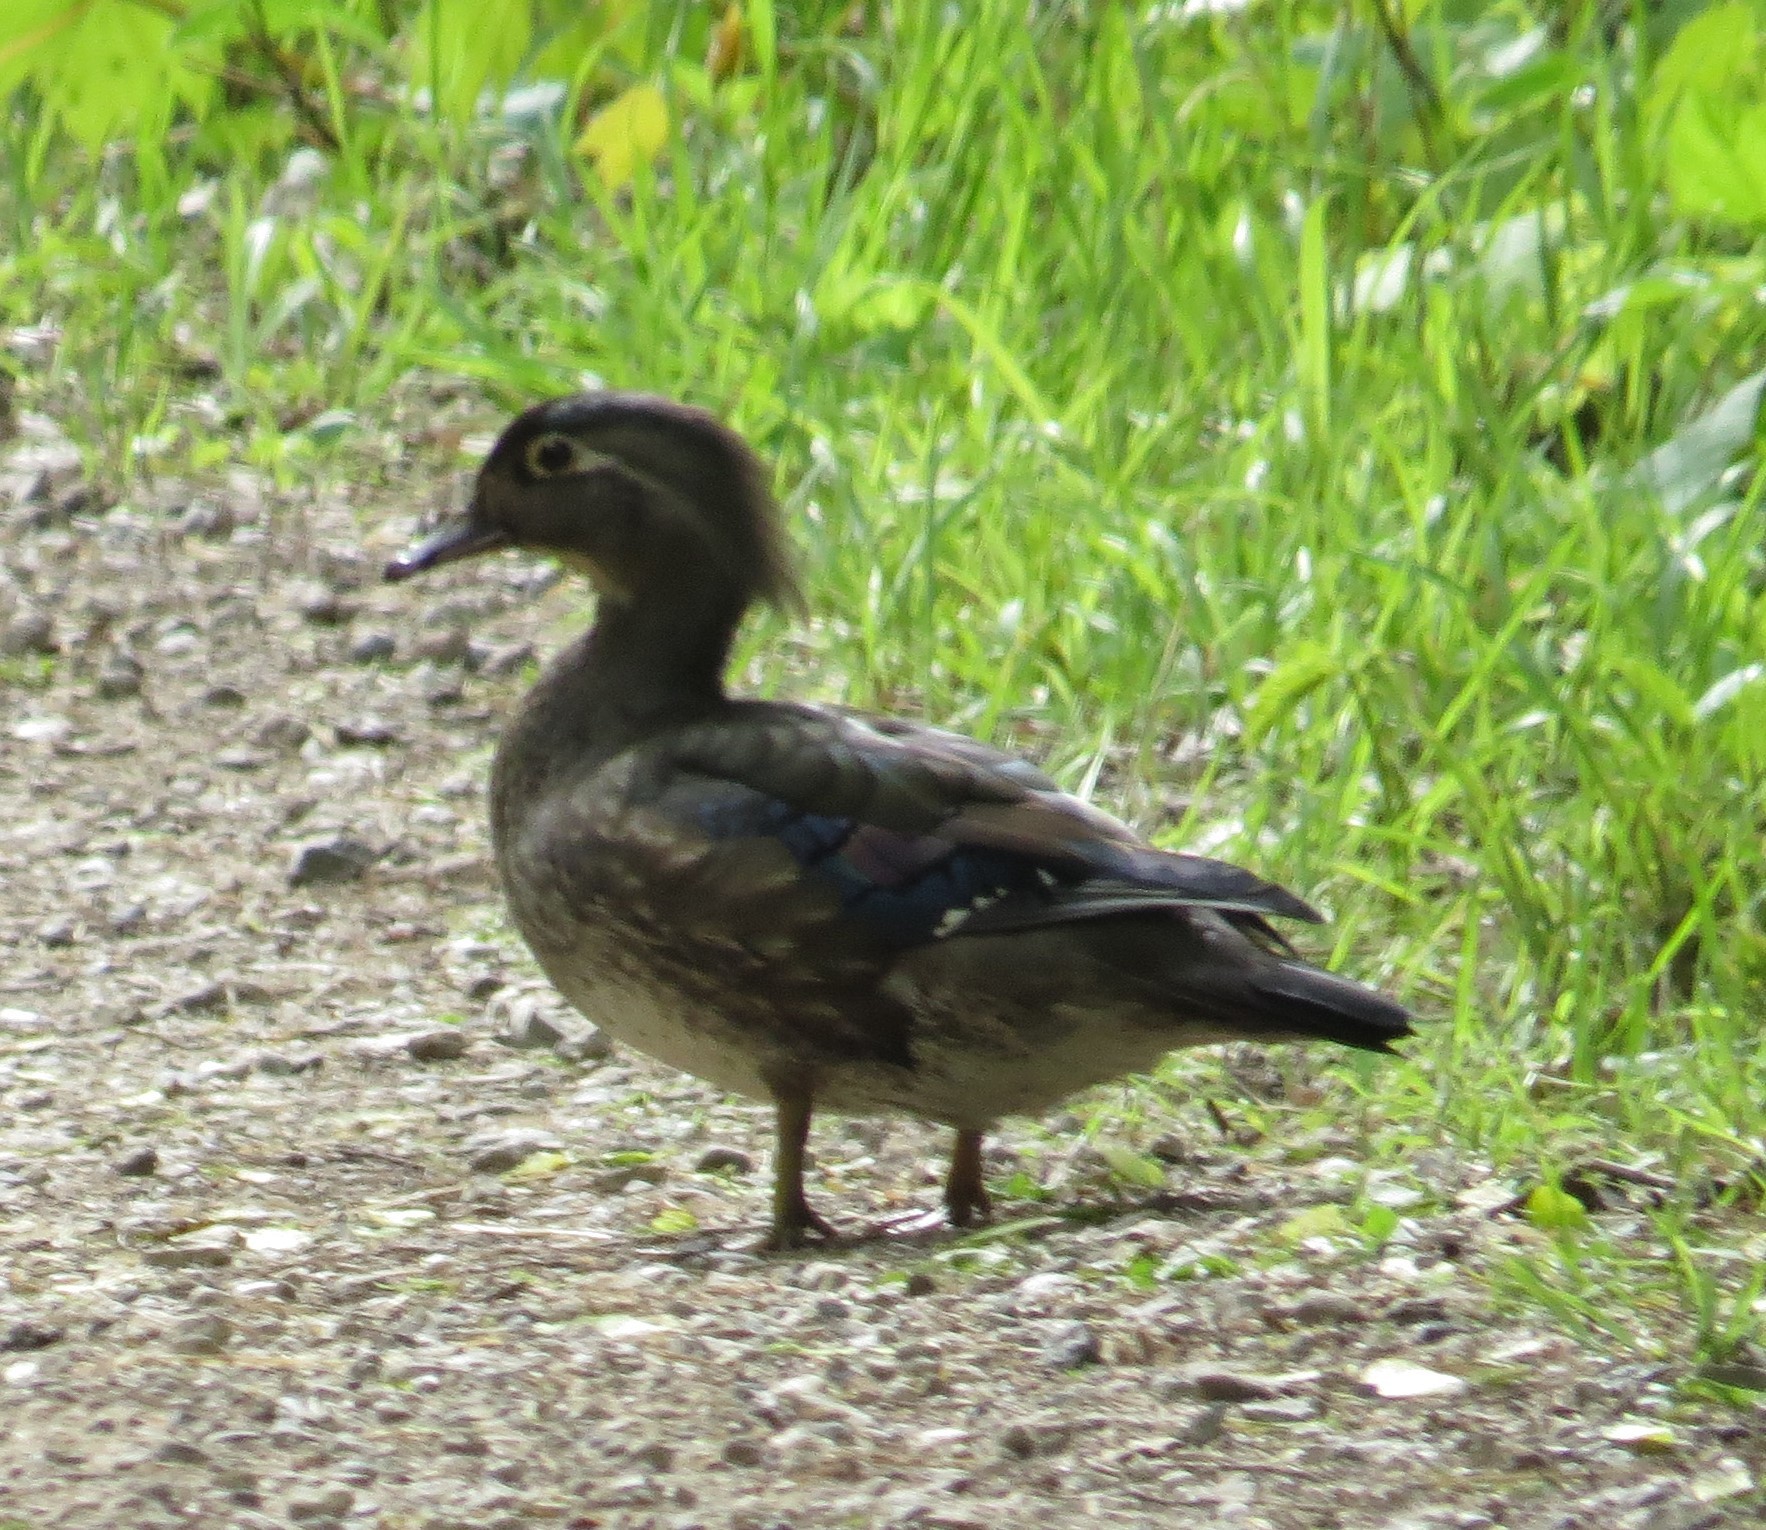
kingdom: Animalia
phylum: Chordata
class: Aves
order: Anseriformes
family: Anatidae
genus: Aix
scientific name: Aix sponsa
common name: Wood duck
